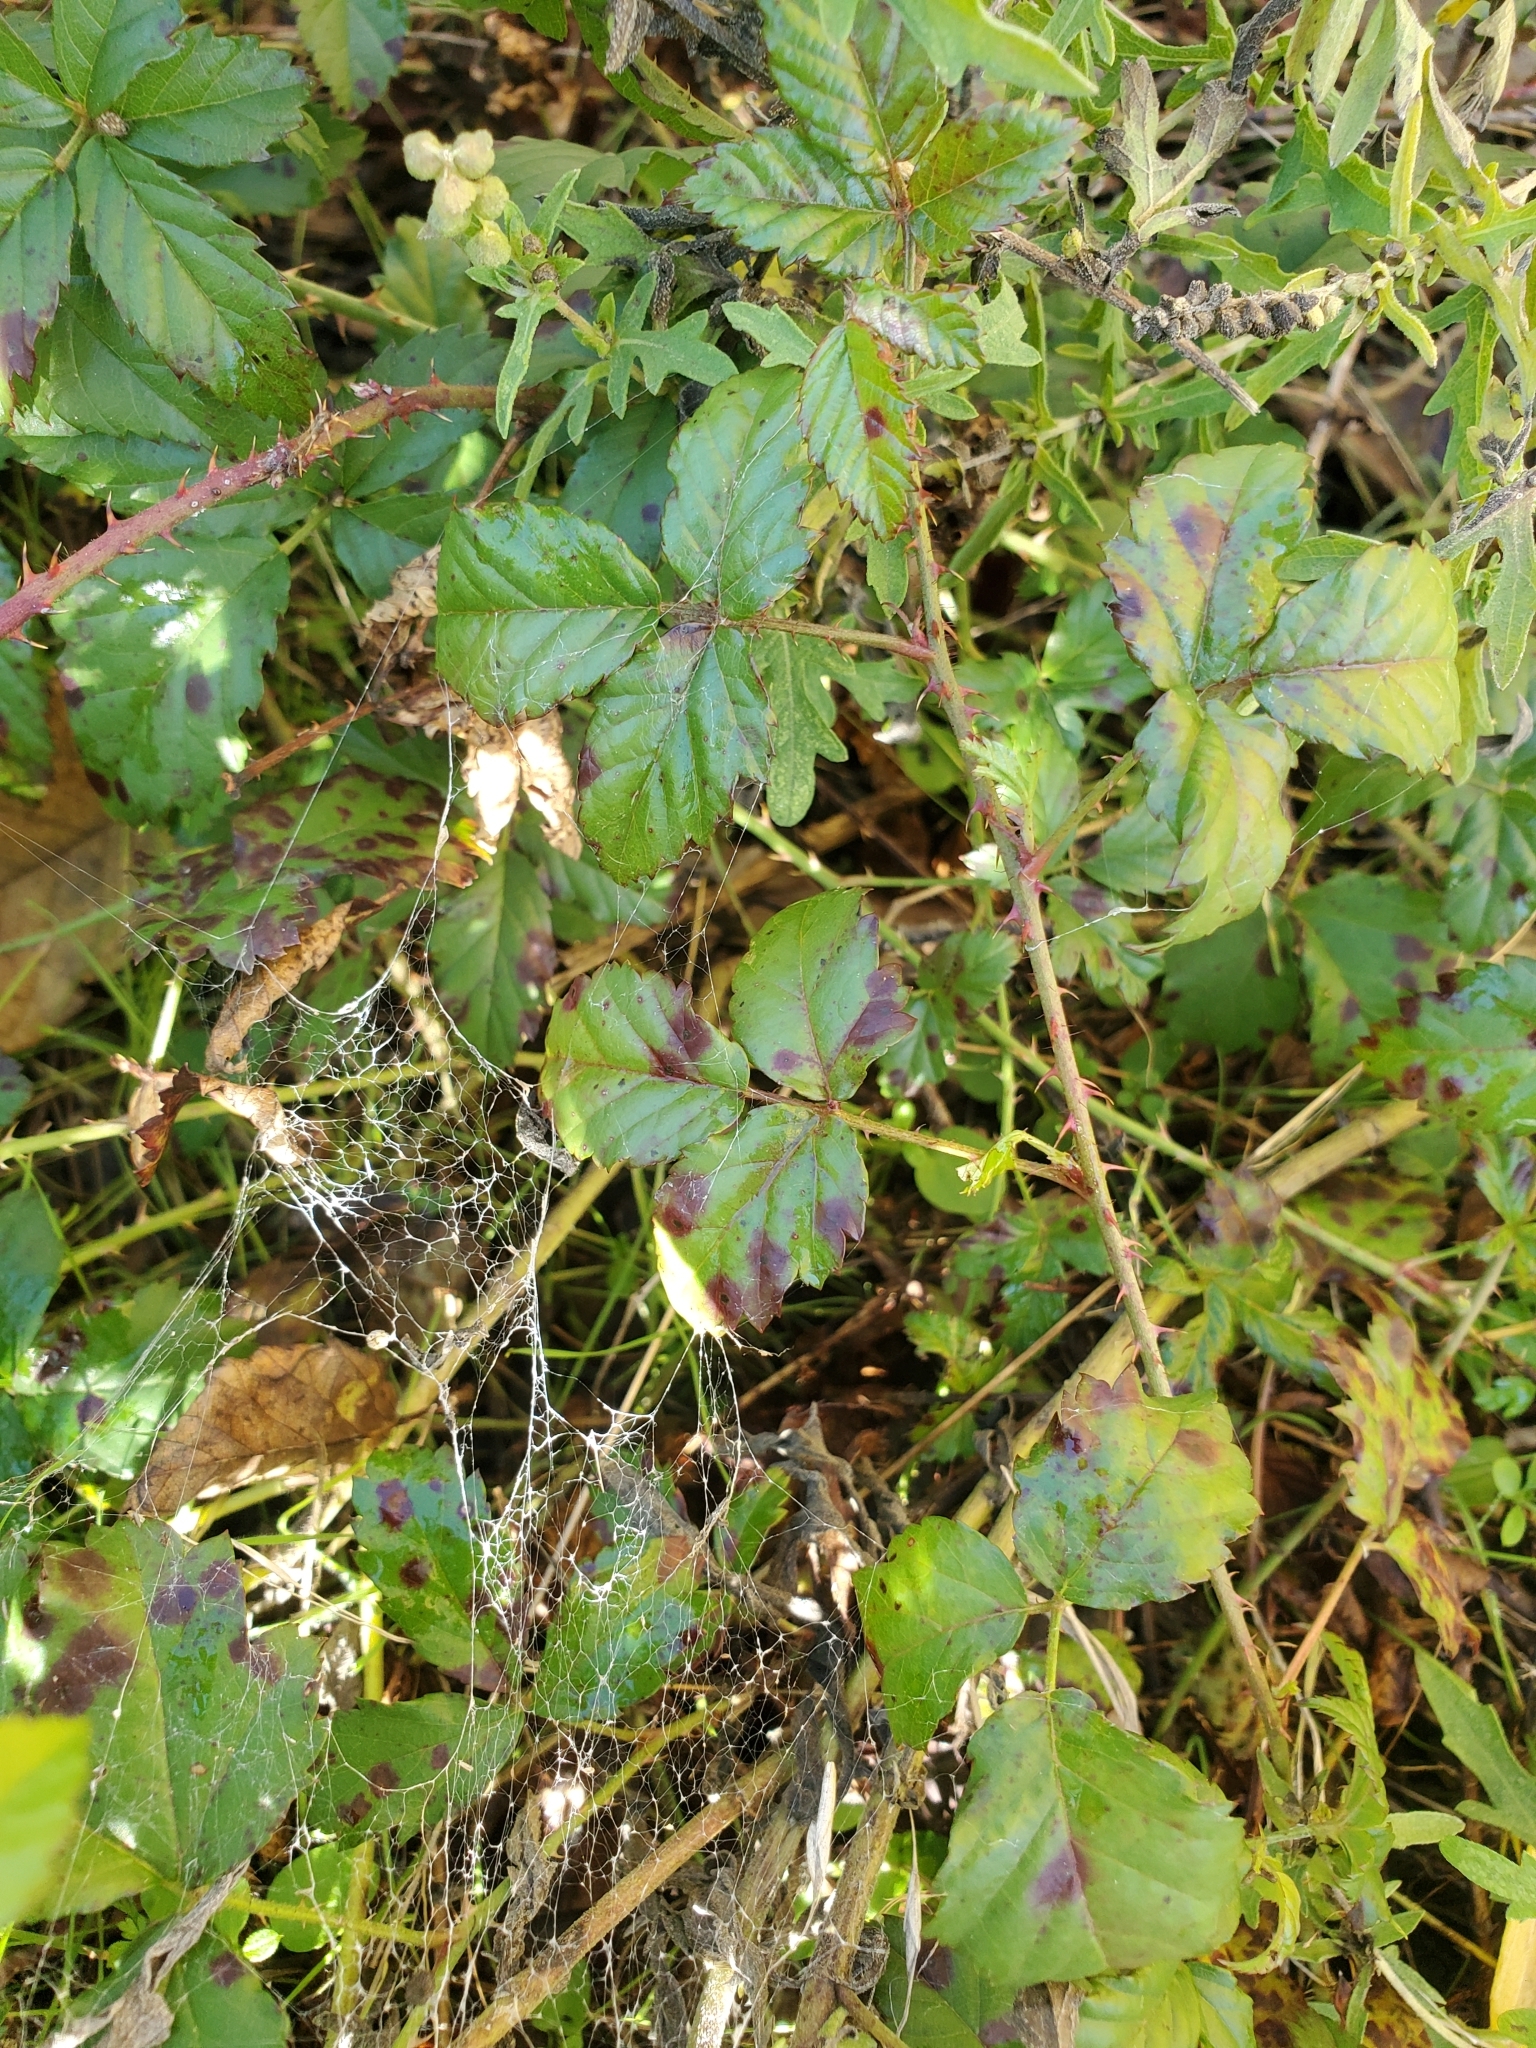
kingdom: Plantae
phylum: Tracheophyta
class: Magnoliopsida
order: Rosales
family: Rosaceae
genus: Rubus
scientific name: Rubus trivialis
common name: Southern dewberry
